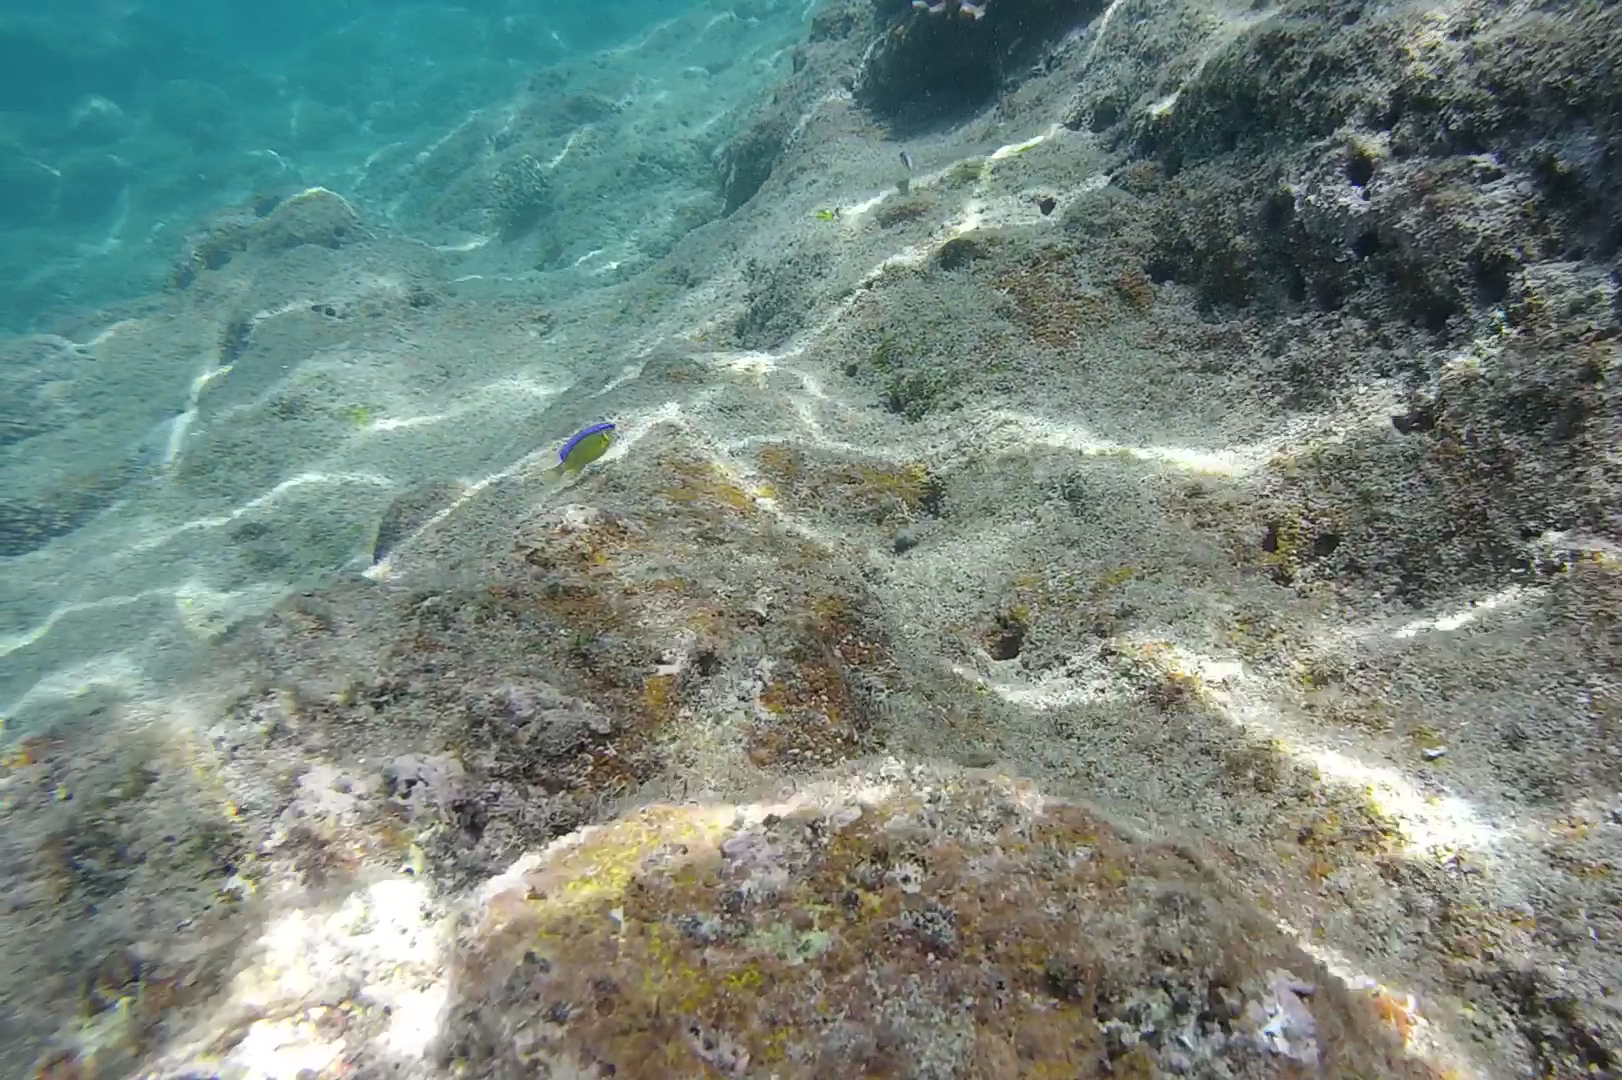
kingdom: Animalia
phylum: Chordata
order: Perciformes
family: Pomacentridae
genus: Chrysiptera
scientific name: Chrysiptera unimaculata
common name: Onespot demoiselle
